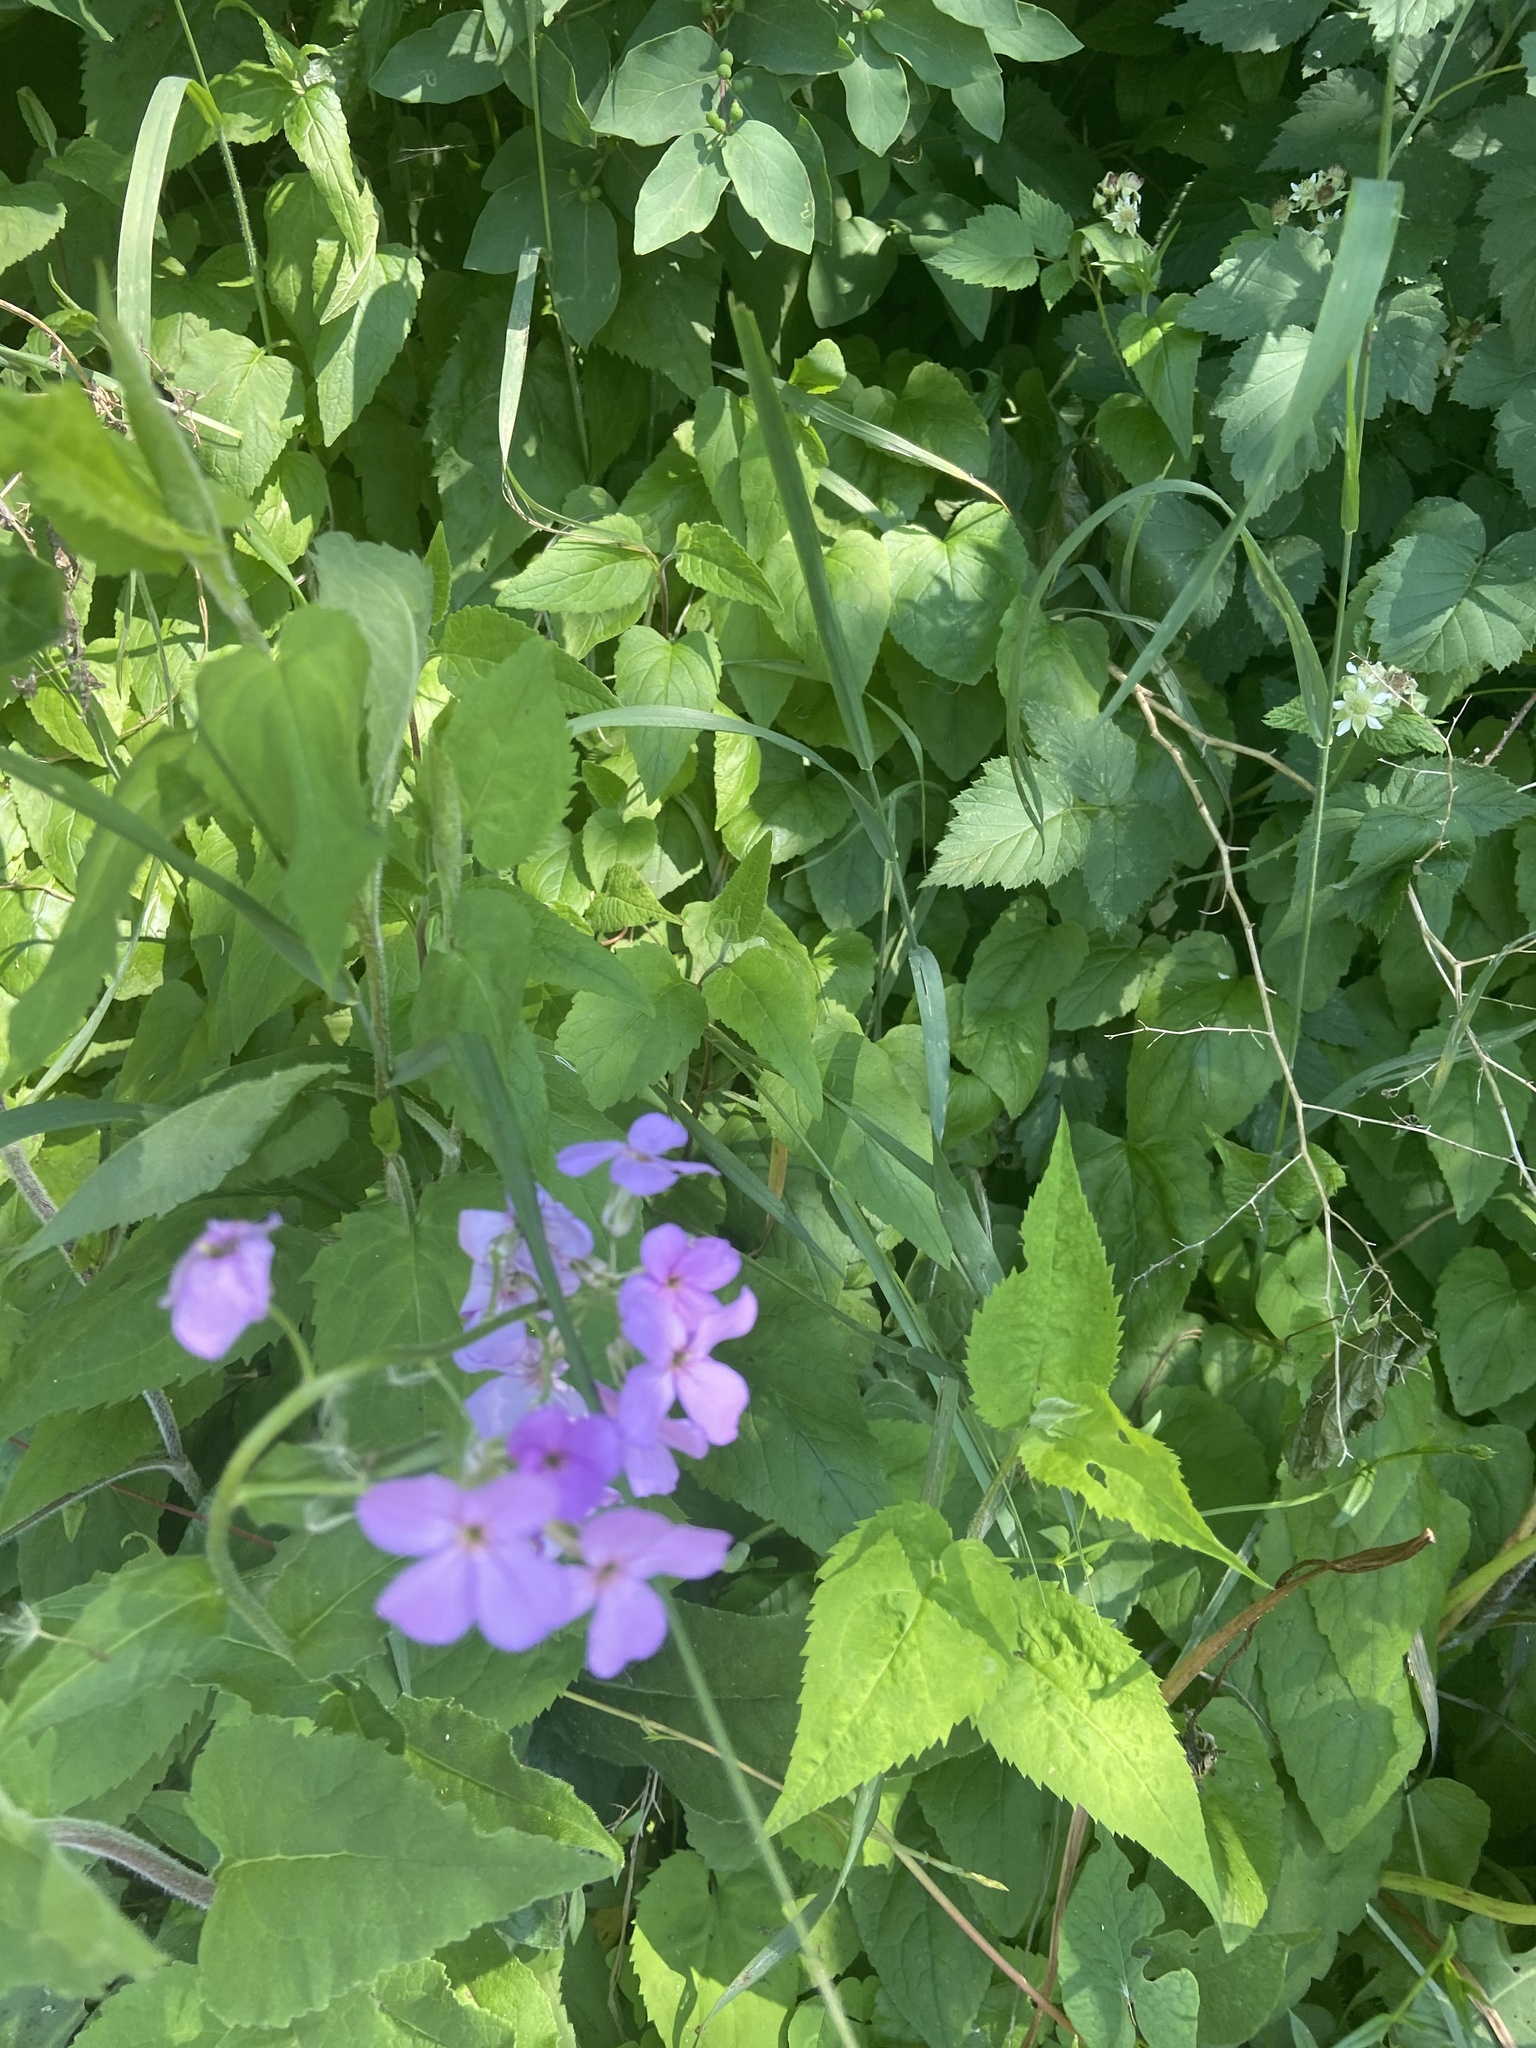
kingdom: Plantae
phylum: Tracheophyta
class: Magnoliopsida
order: Brassicales
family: Brassicaceae
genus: Hesperis
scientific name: Hesperis matronalis
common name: Dame's-violet
